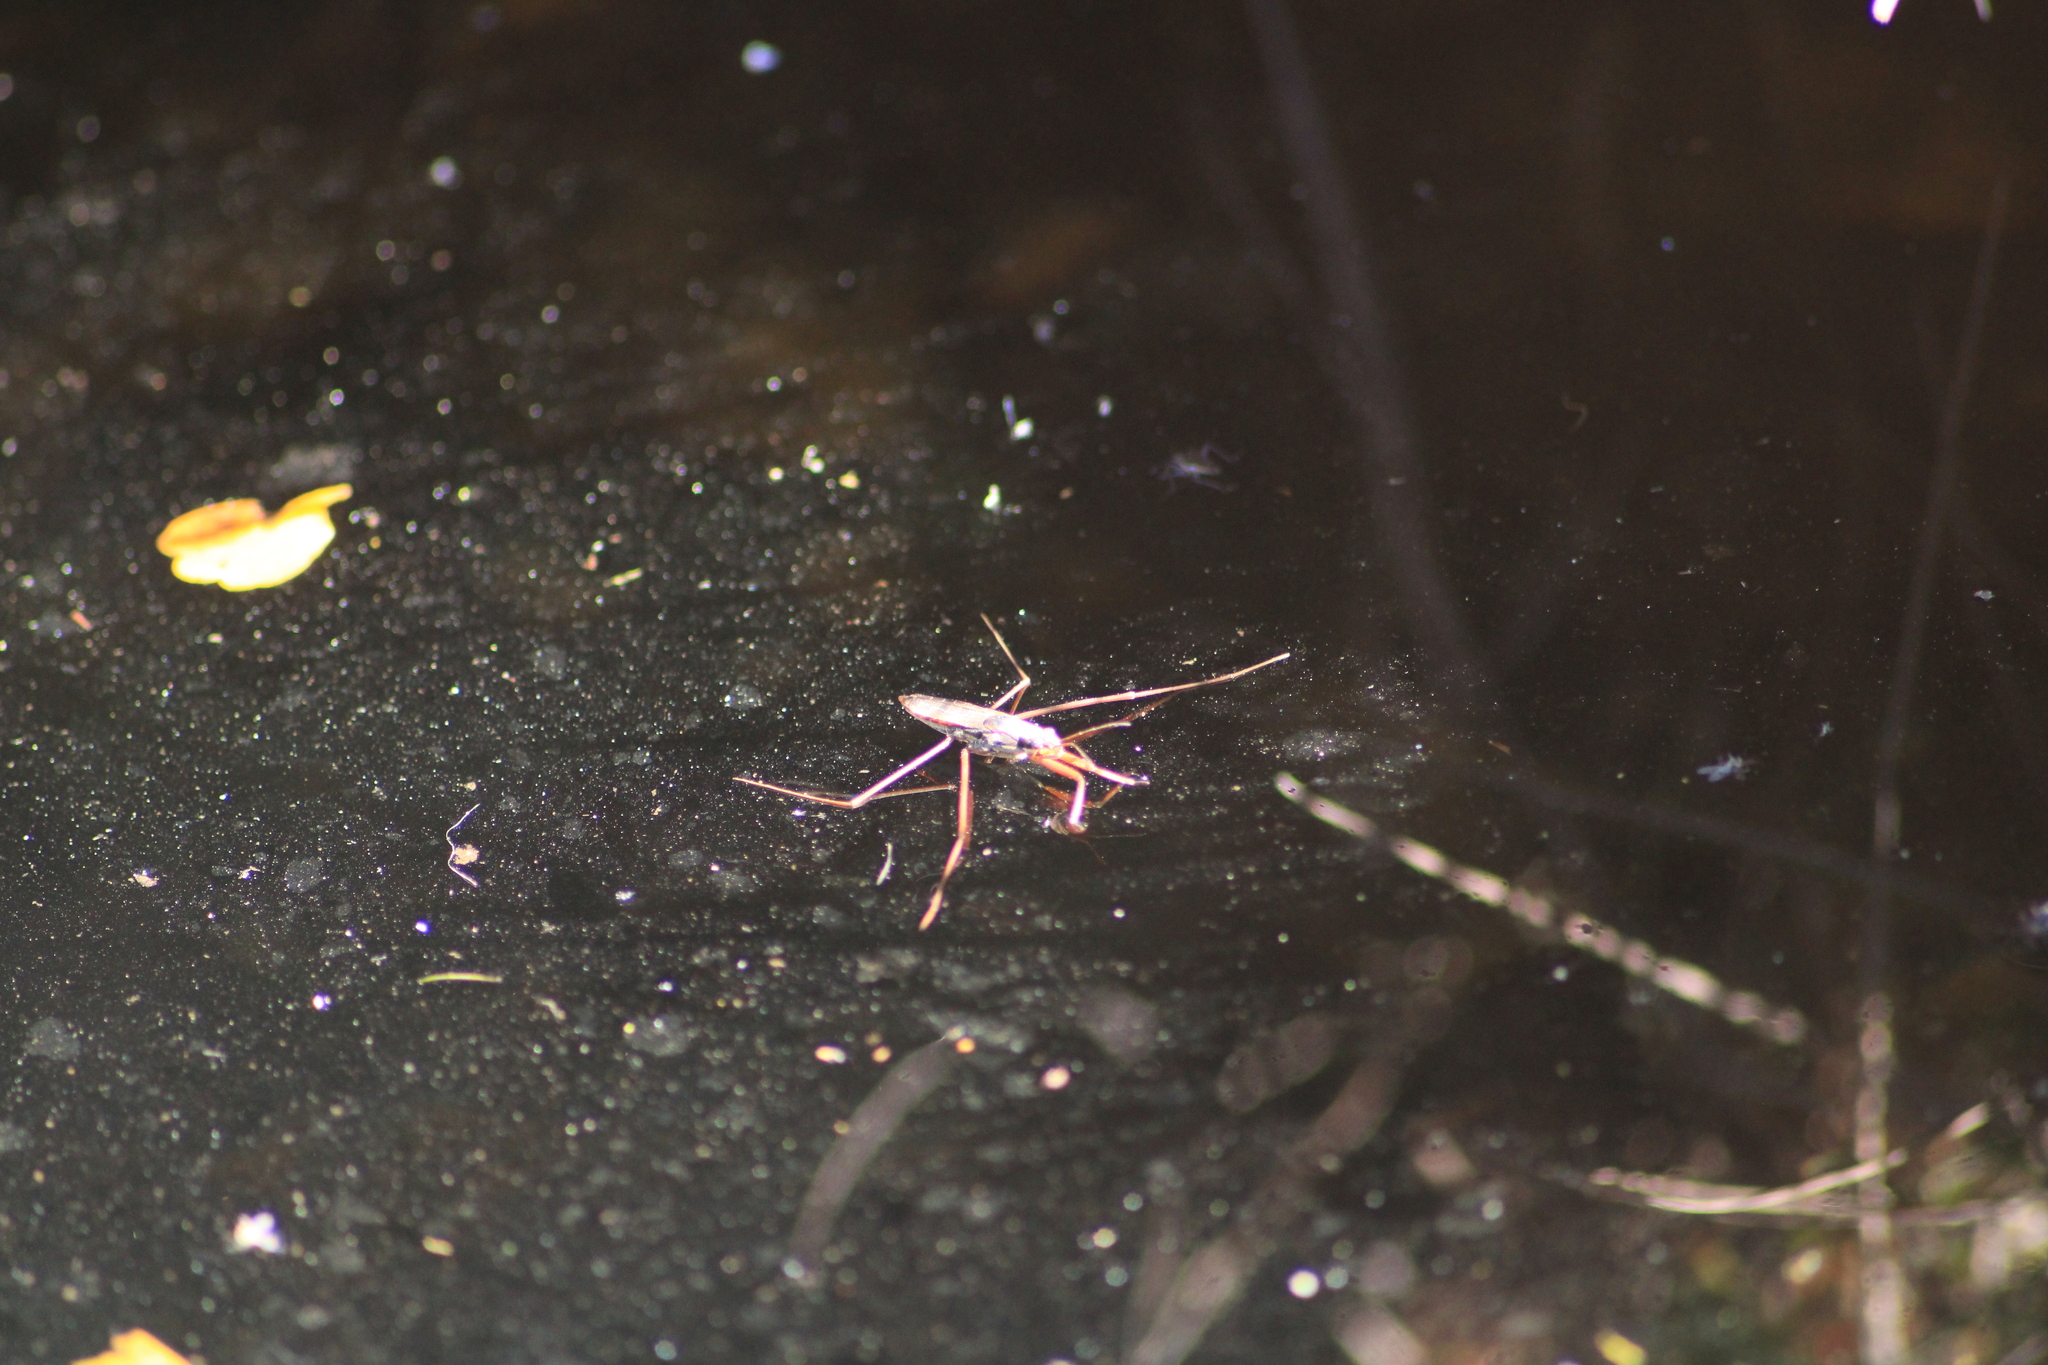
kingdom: Animalia
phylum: Arthropoda
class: Insecta
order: Hemiptera
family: Gerridae
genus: Aquarius
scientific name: Aquarius
